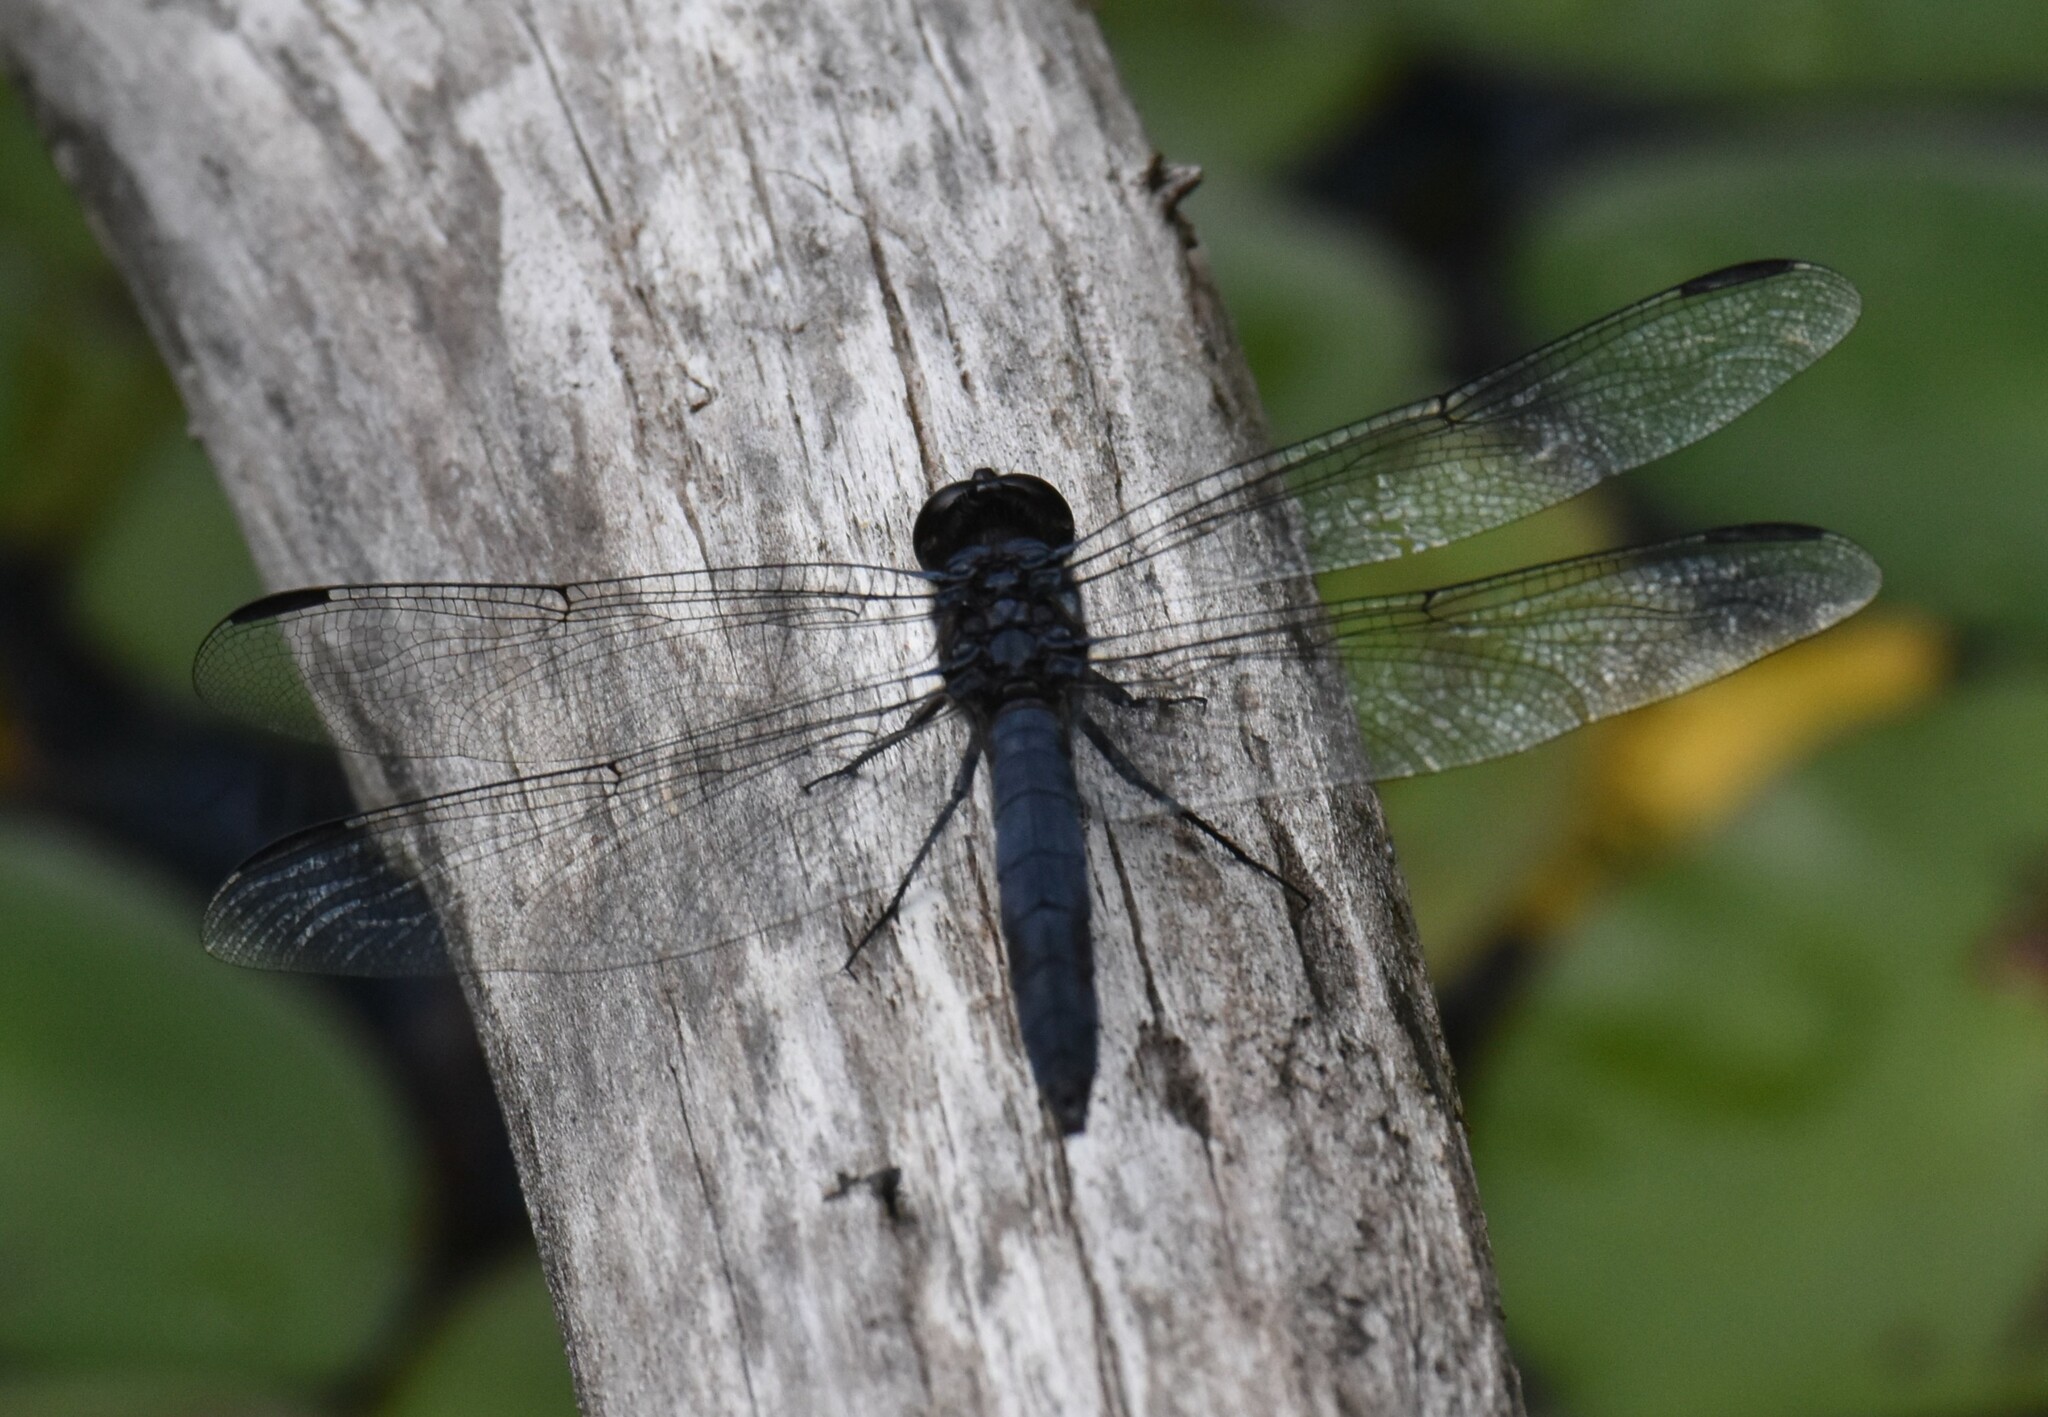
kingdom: Animalia
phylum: Arthropoda
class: Insecta
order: Odonata
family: Libellulidae
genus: Libellula
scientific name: Libellula incesta
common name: Slaty skimmer
